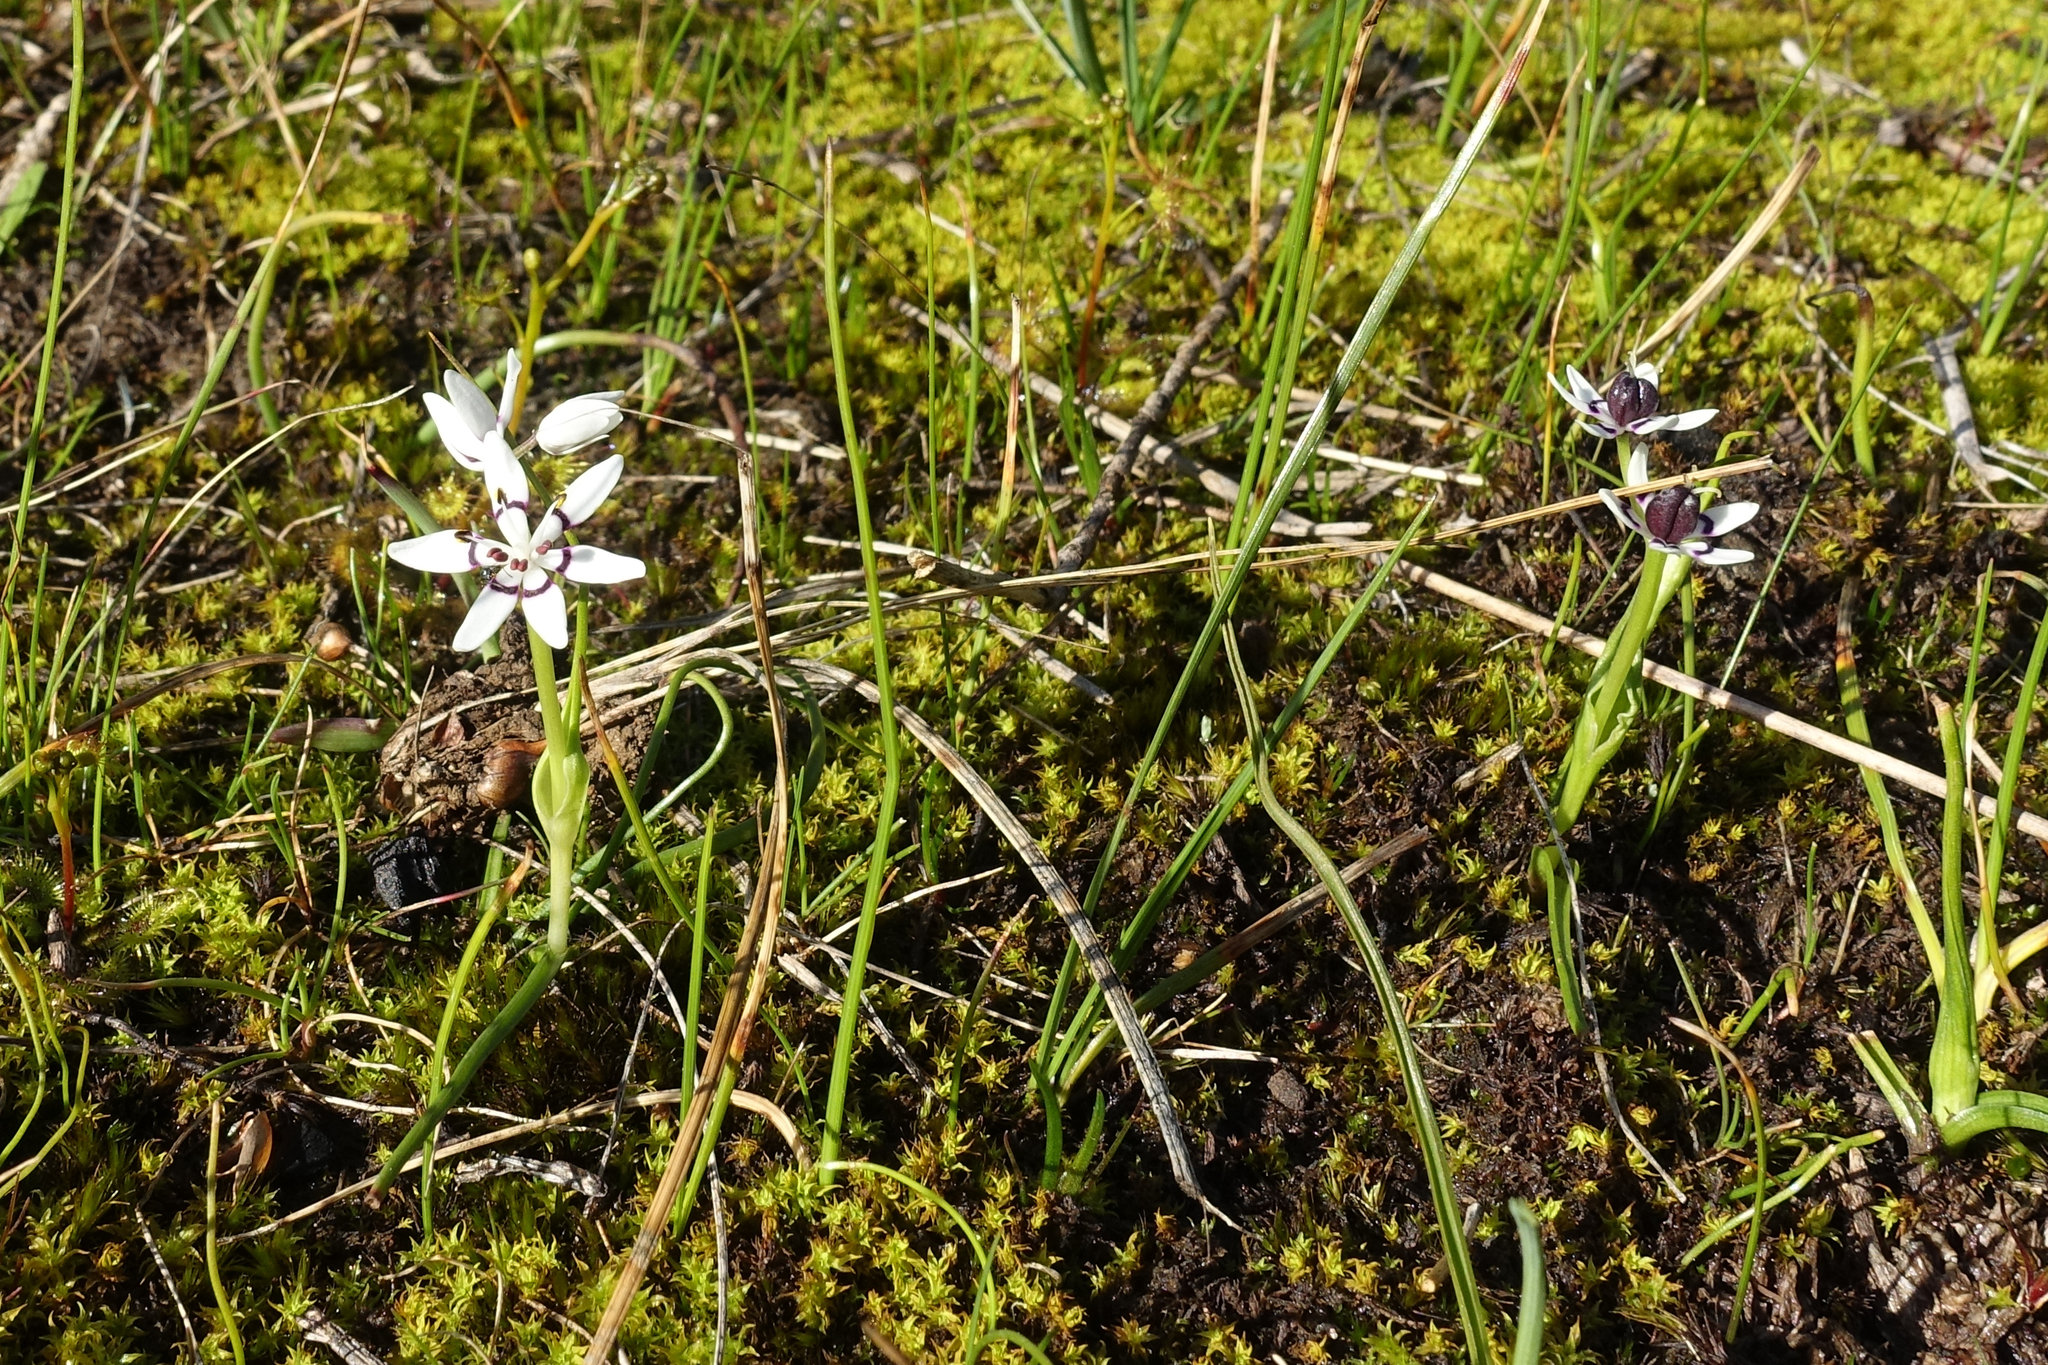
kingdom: Plantae
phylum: Tracheophyta
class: Liliopsida
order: Liliales
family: Colchicaceae
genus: Wurmbea
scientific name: Wurmbea dioica
